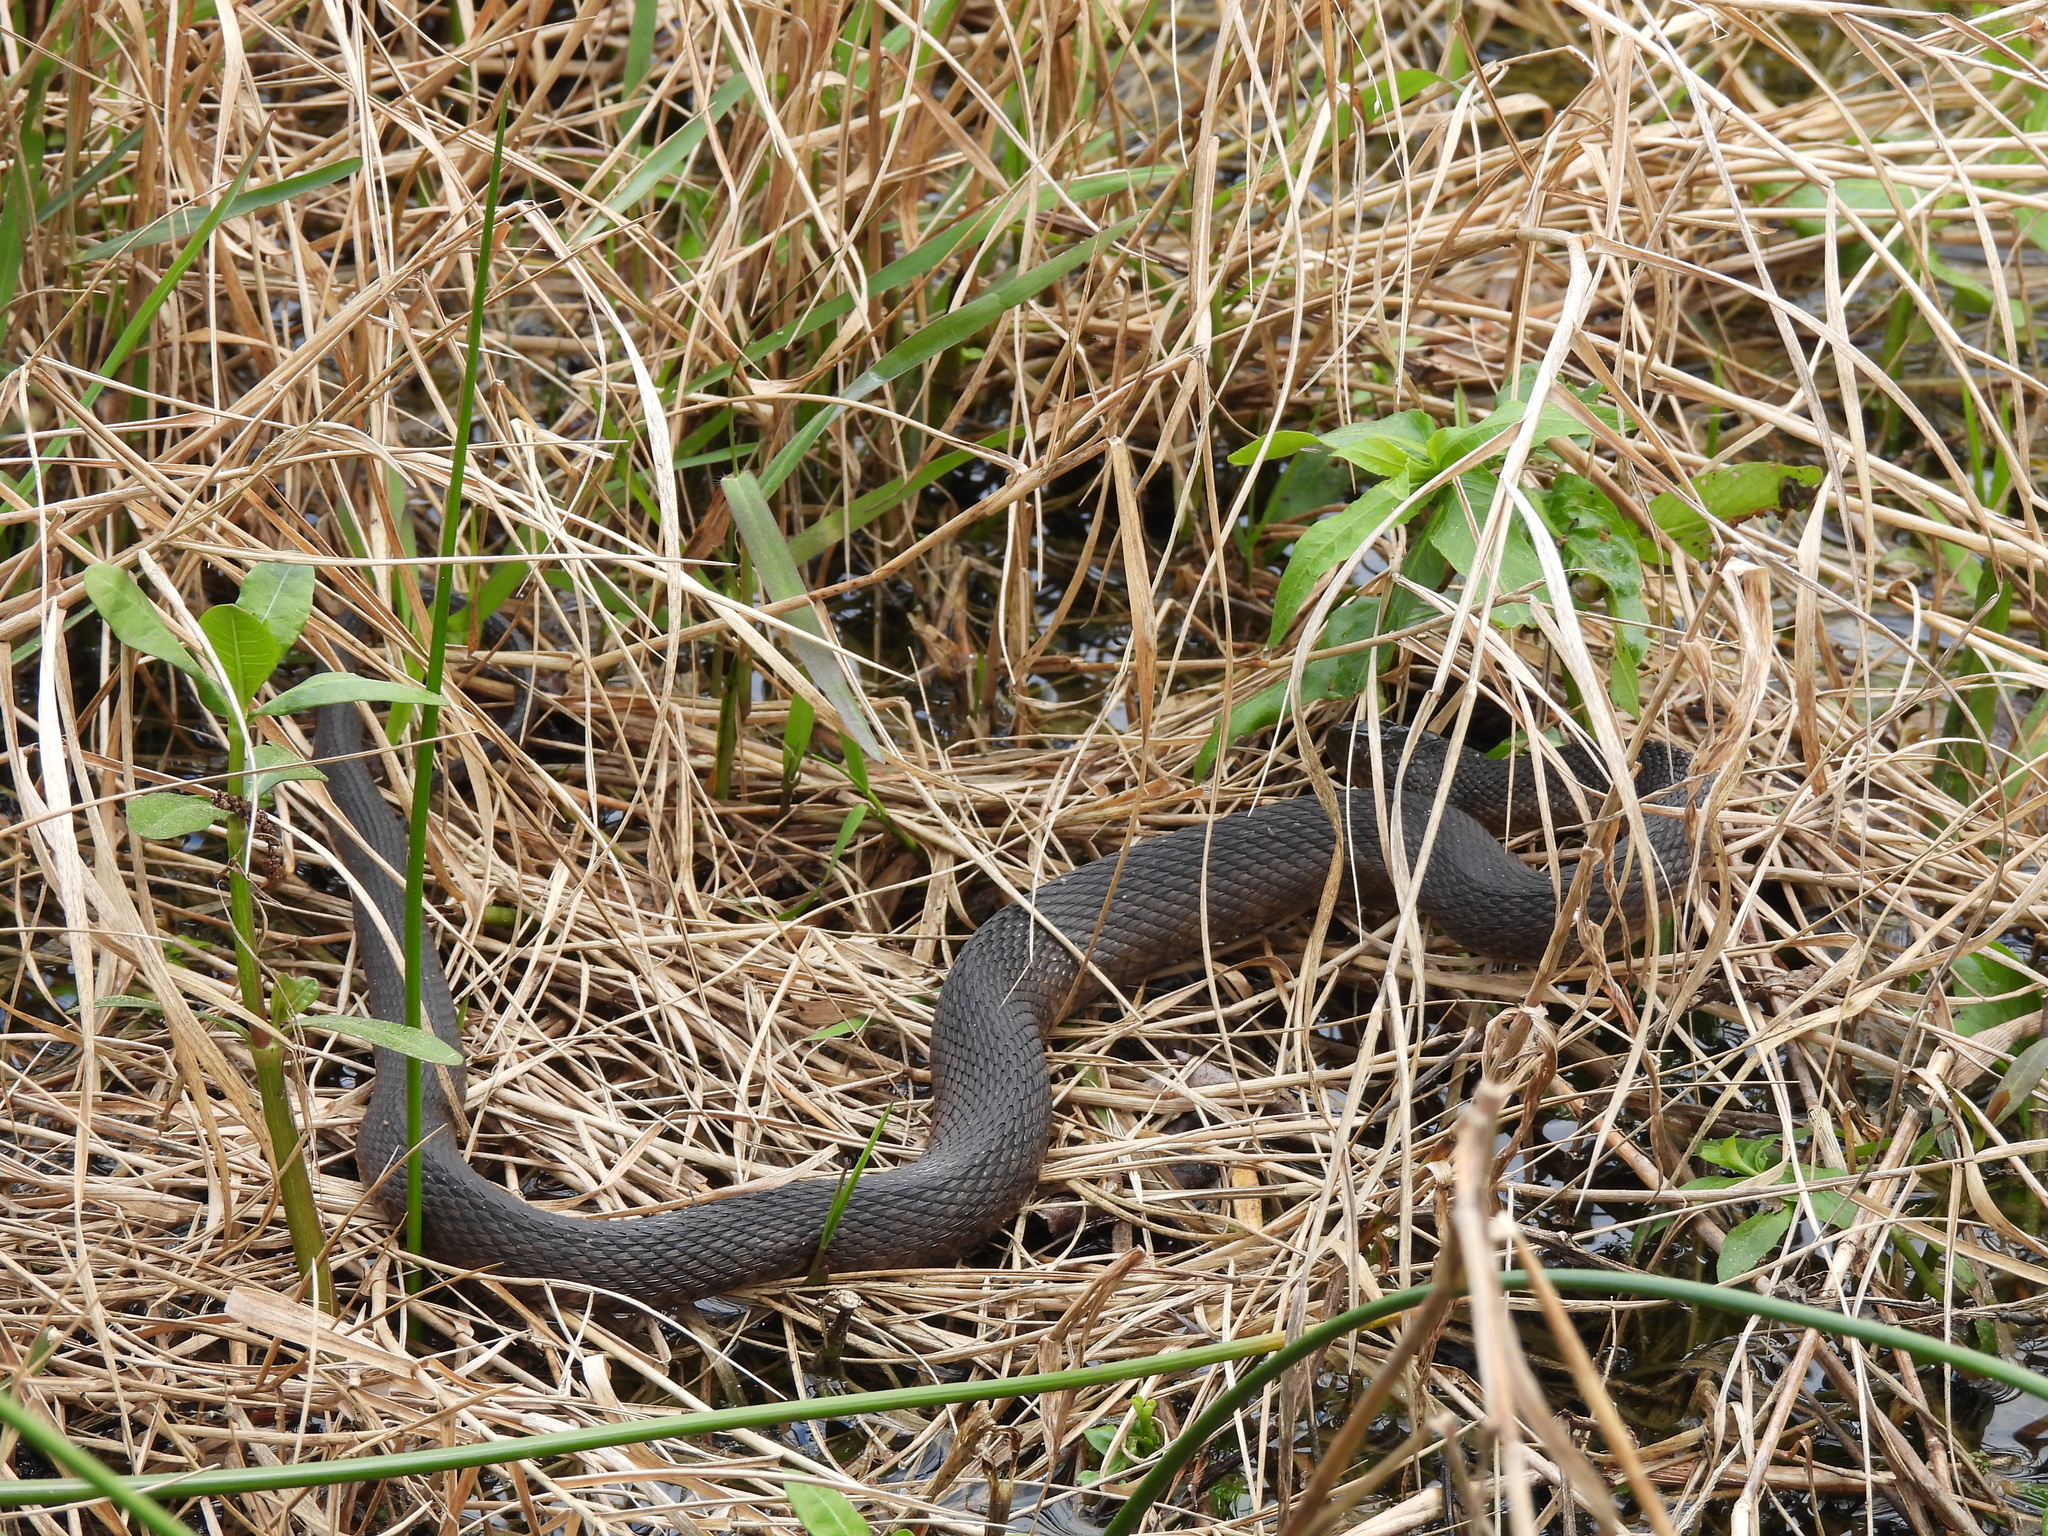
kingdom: Animalia
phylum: Chordata
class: Squamata
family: Colubridae
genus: Nerodia
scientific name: Nerodia cyclopion
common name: Mississippi green water snake
